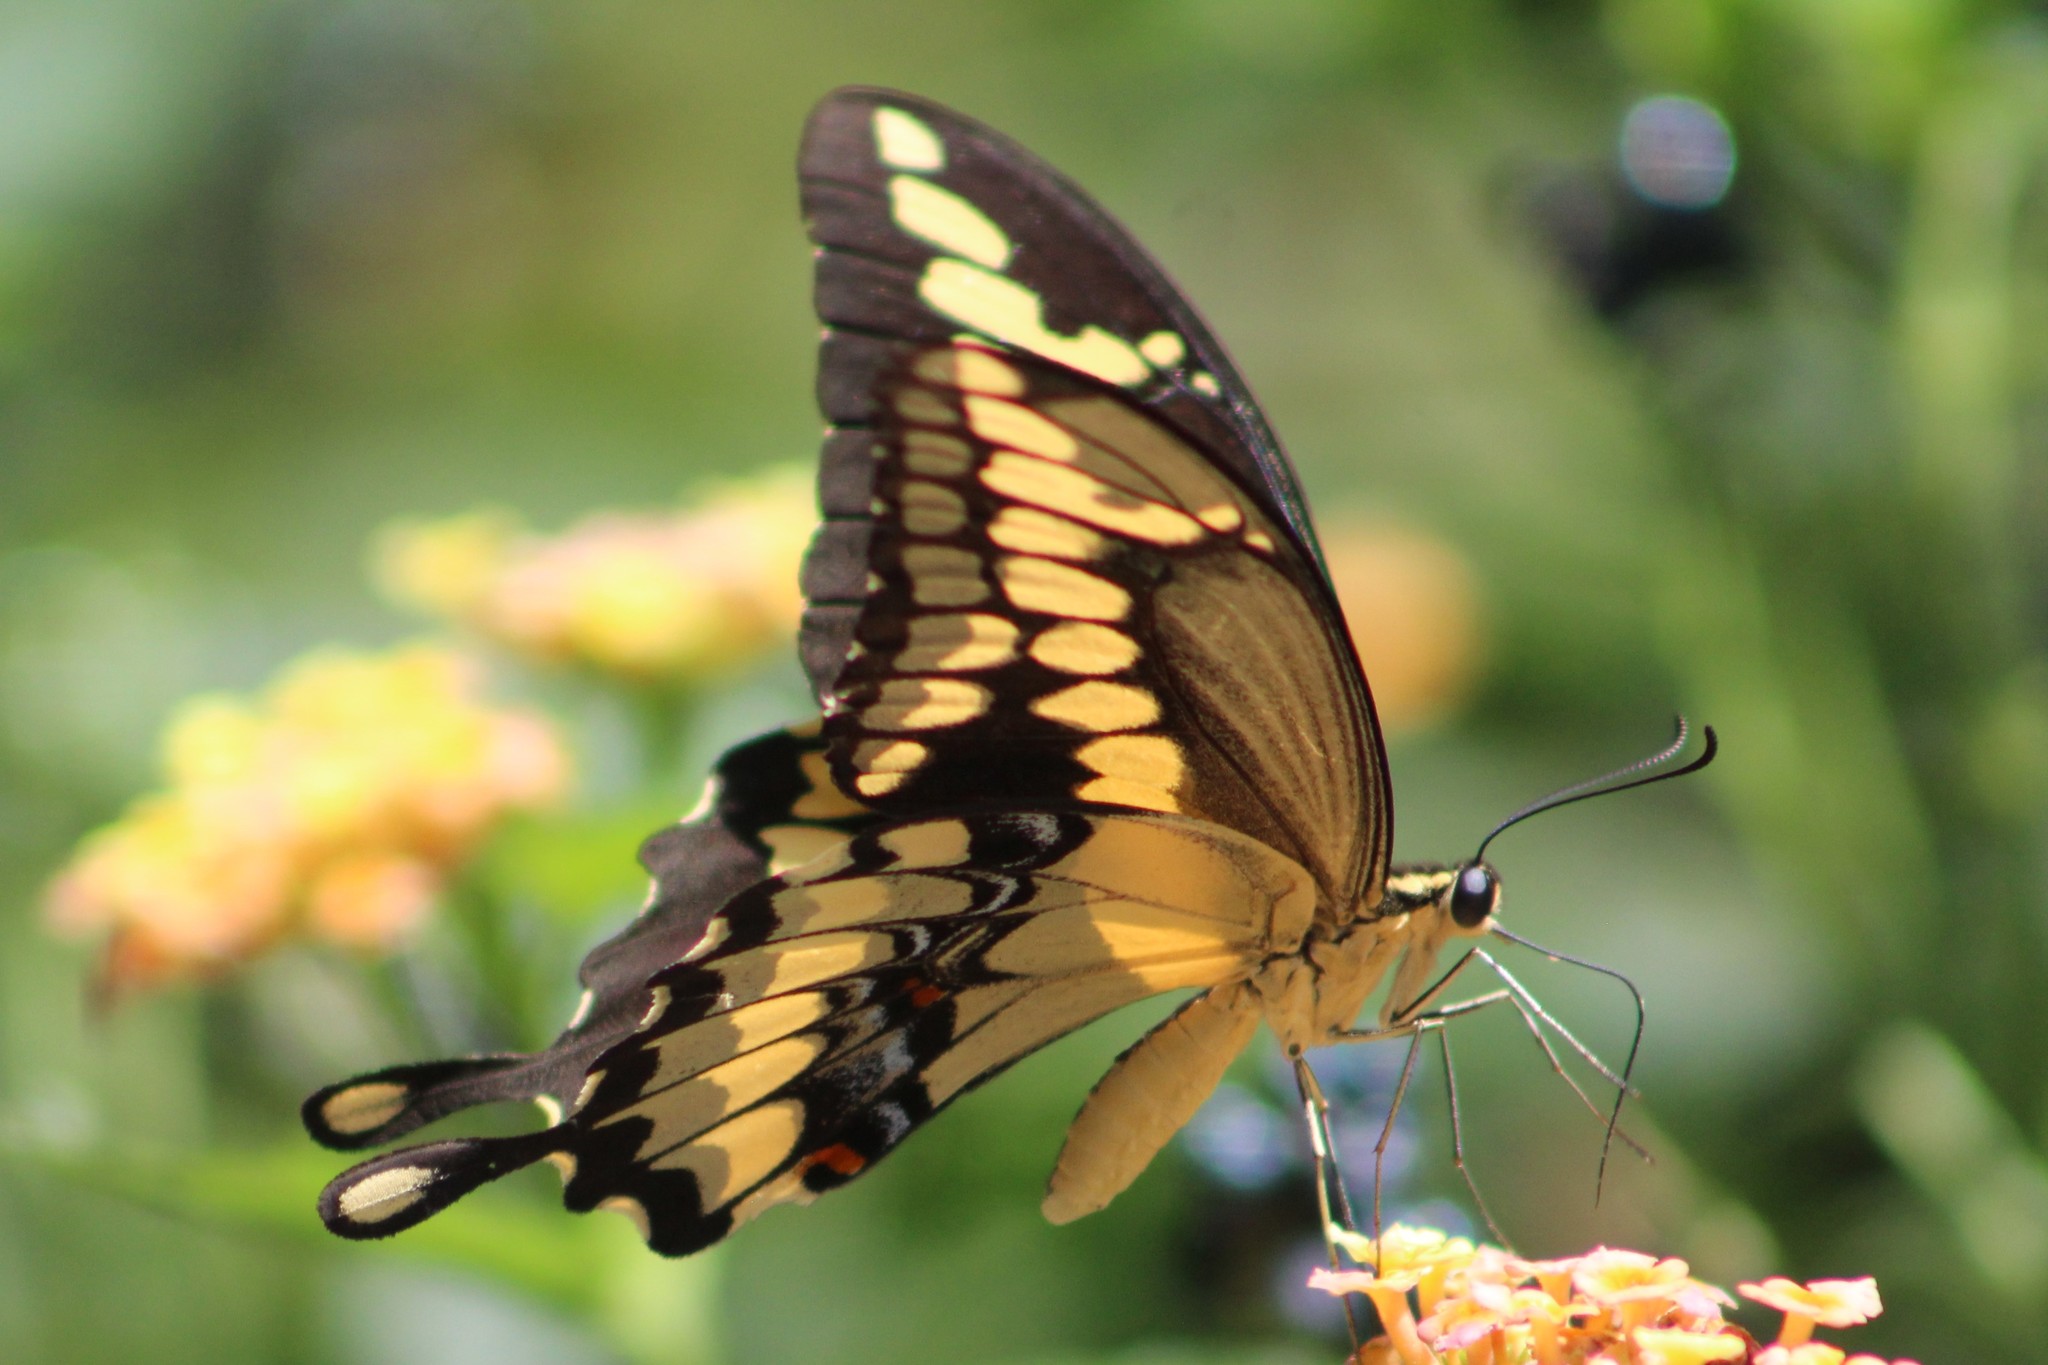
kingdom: Animalia
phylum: Arthropoda
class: Insecta
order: Lepidoptera
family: Papilionidae
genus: Papilio
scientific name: Papilio rumiko
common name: Western giant swallowtail
